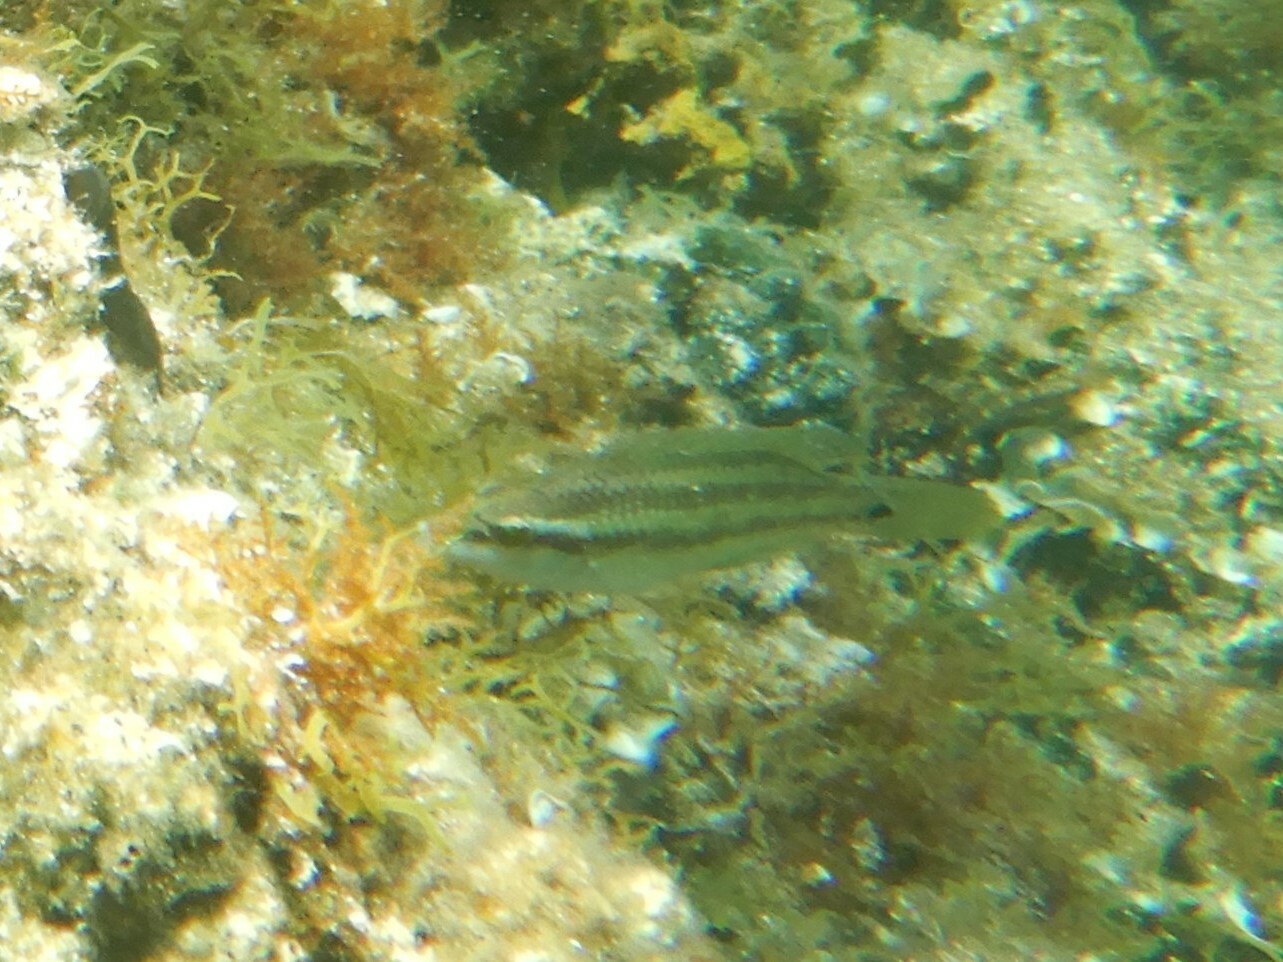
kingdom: Animalia
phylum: Chordata
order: Perciformes
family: Labridae
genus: Symphodus
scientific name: Symphodus tinca
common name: Peacock wrasse
